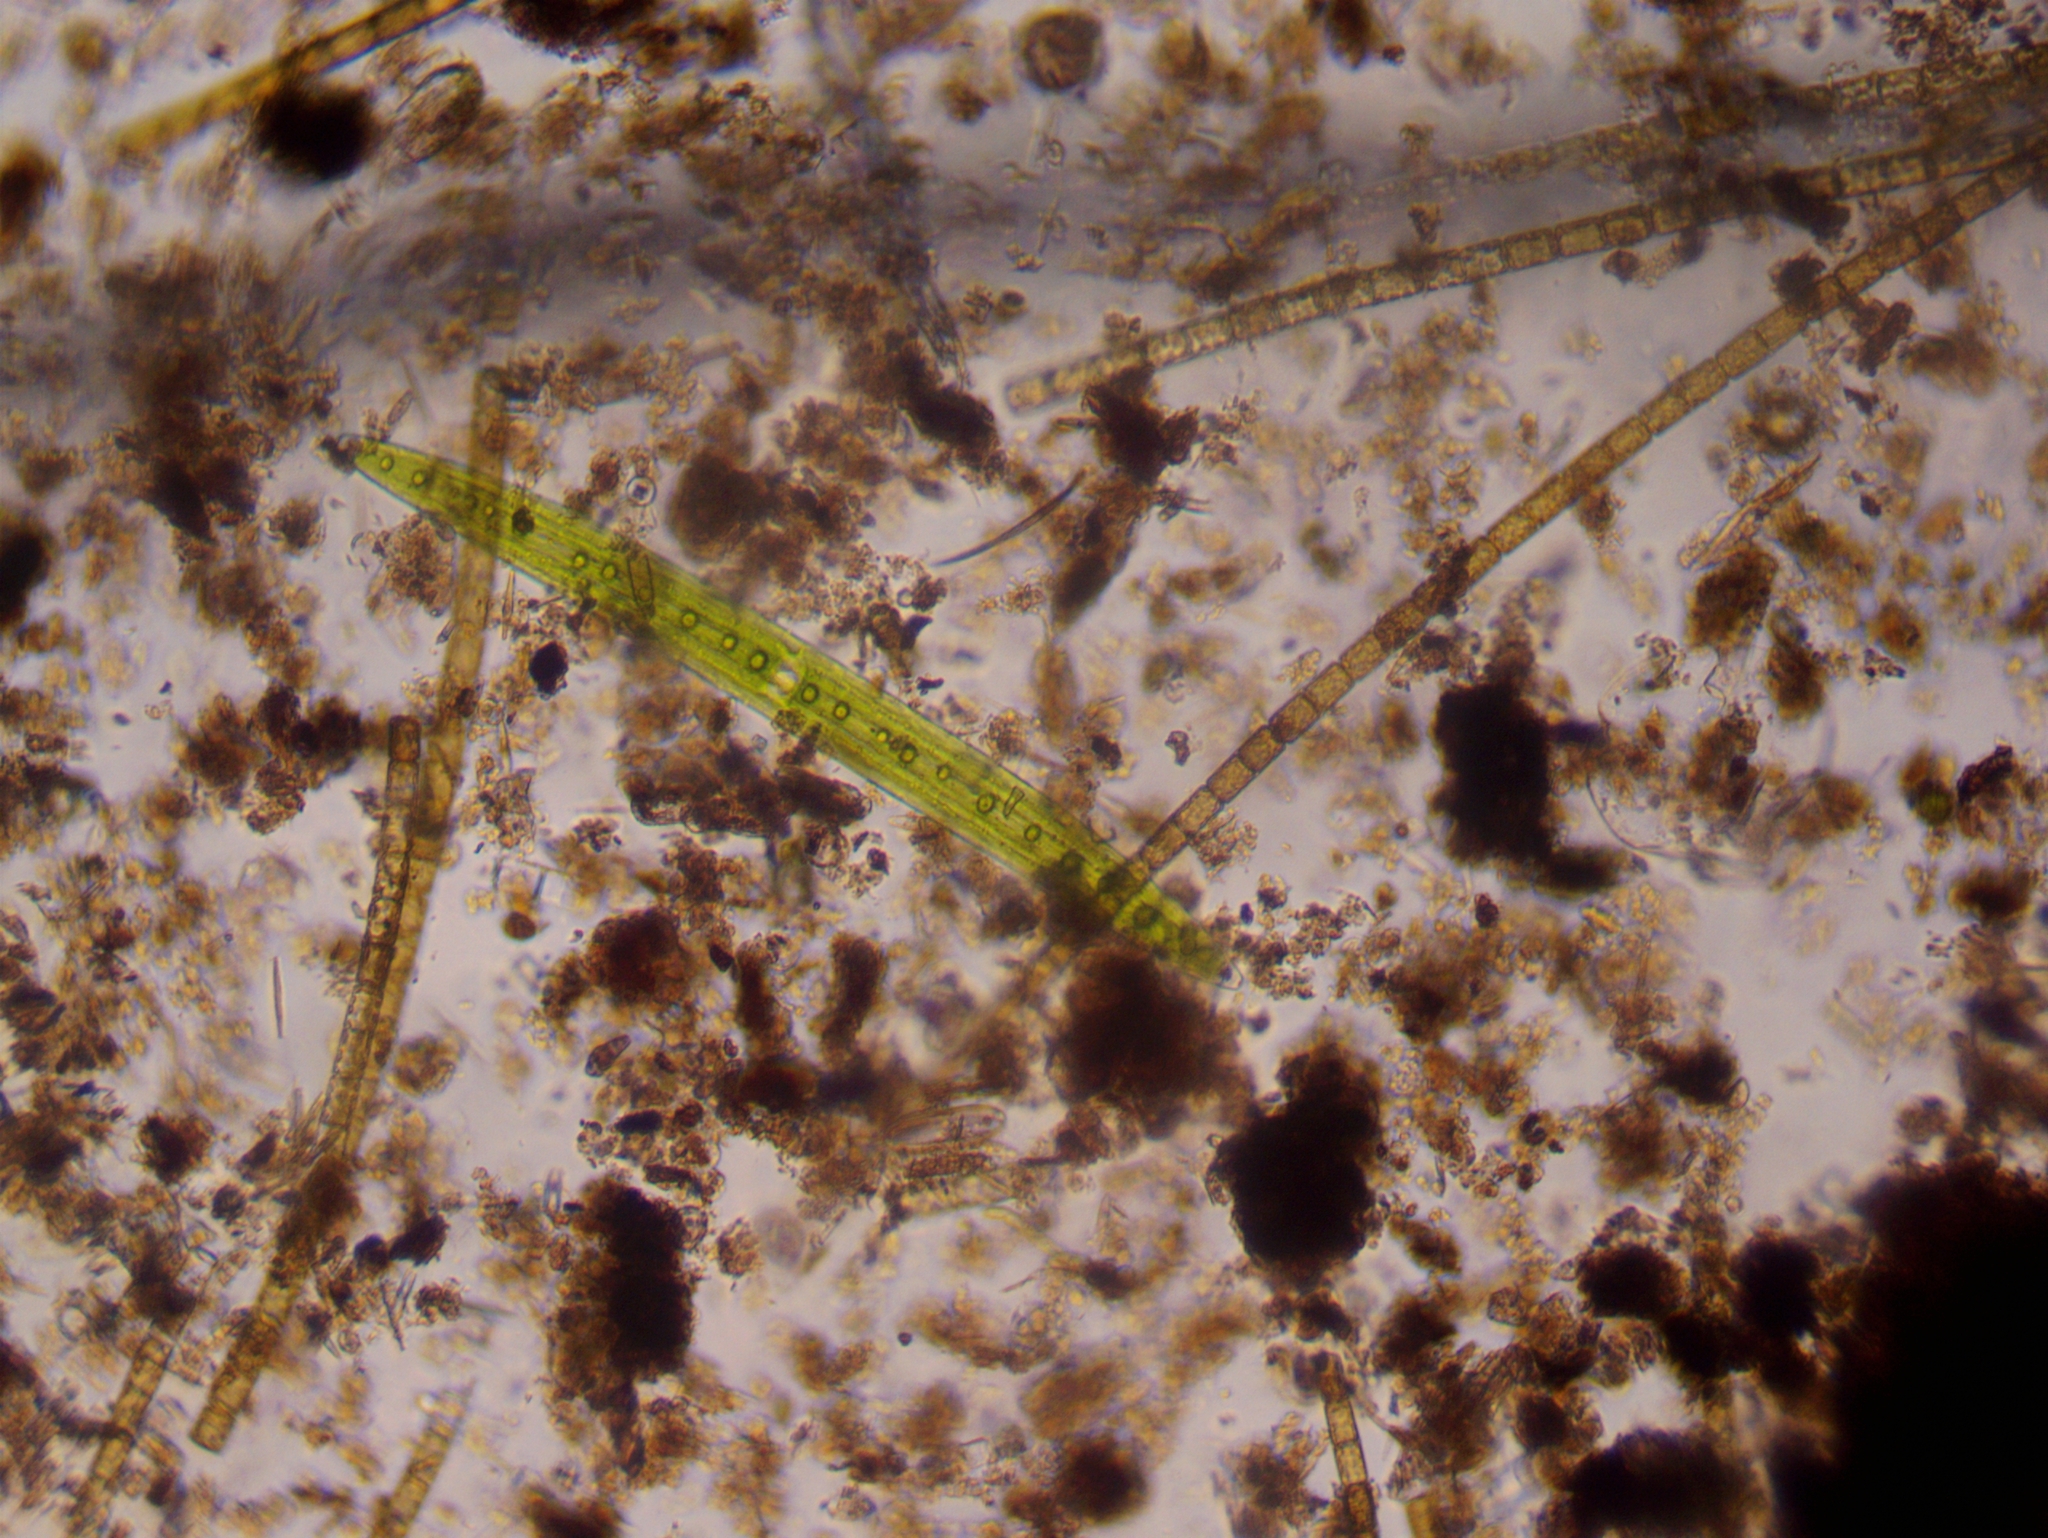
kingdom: Plantae
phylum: Charophyta
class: Zygnematophyceae
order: Zygnematales
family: Closteriaceae
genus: Closterium
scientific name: Closterium acerosum
